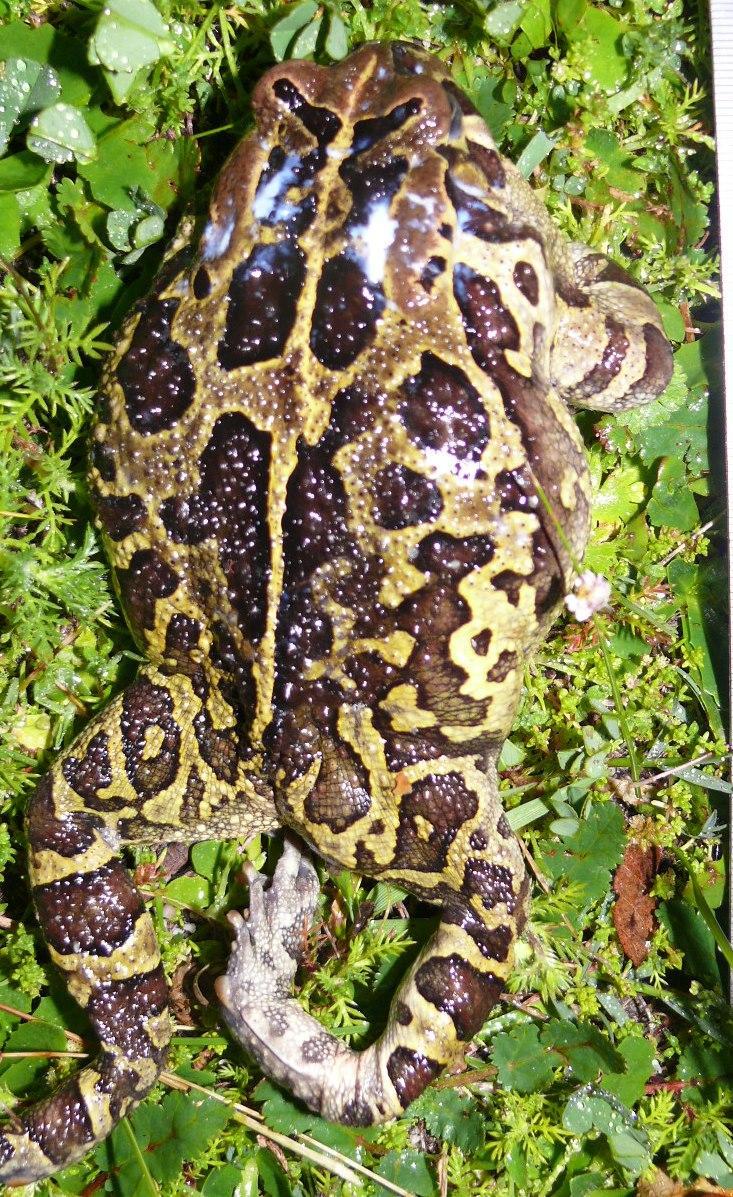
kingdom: Animalia
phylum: Chordata
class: Amphibia
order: Anura
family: Bufonidae
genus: Sclerophrys
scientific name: Sclerophrys pantherina
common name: Panther toad
